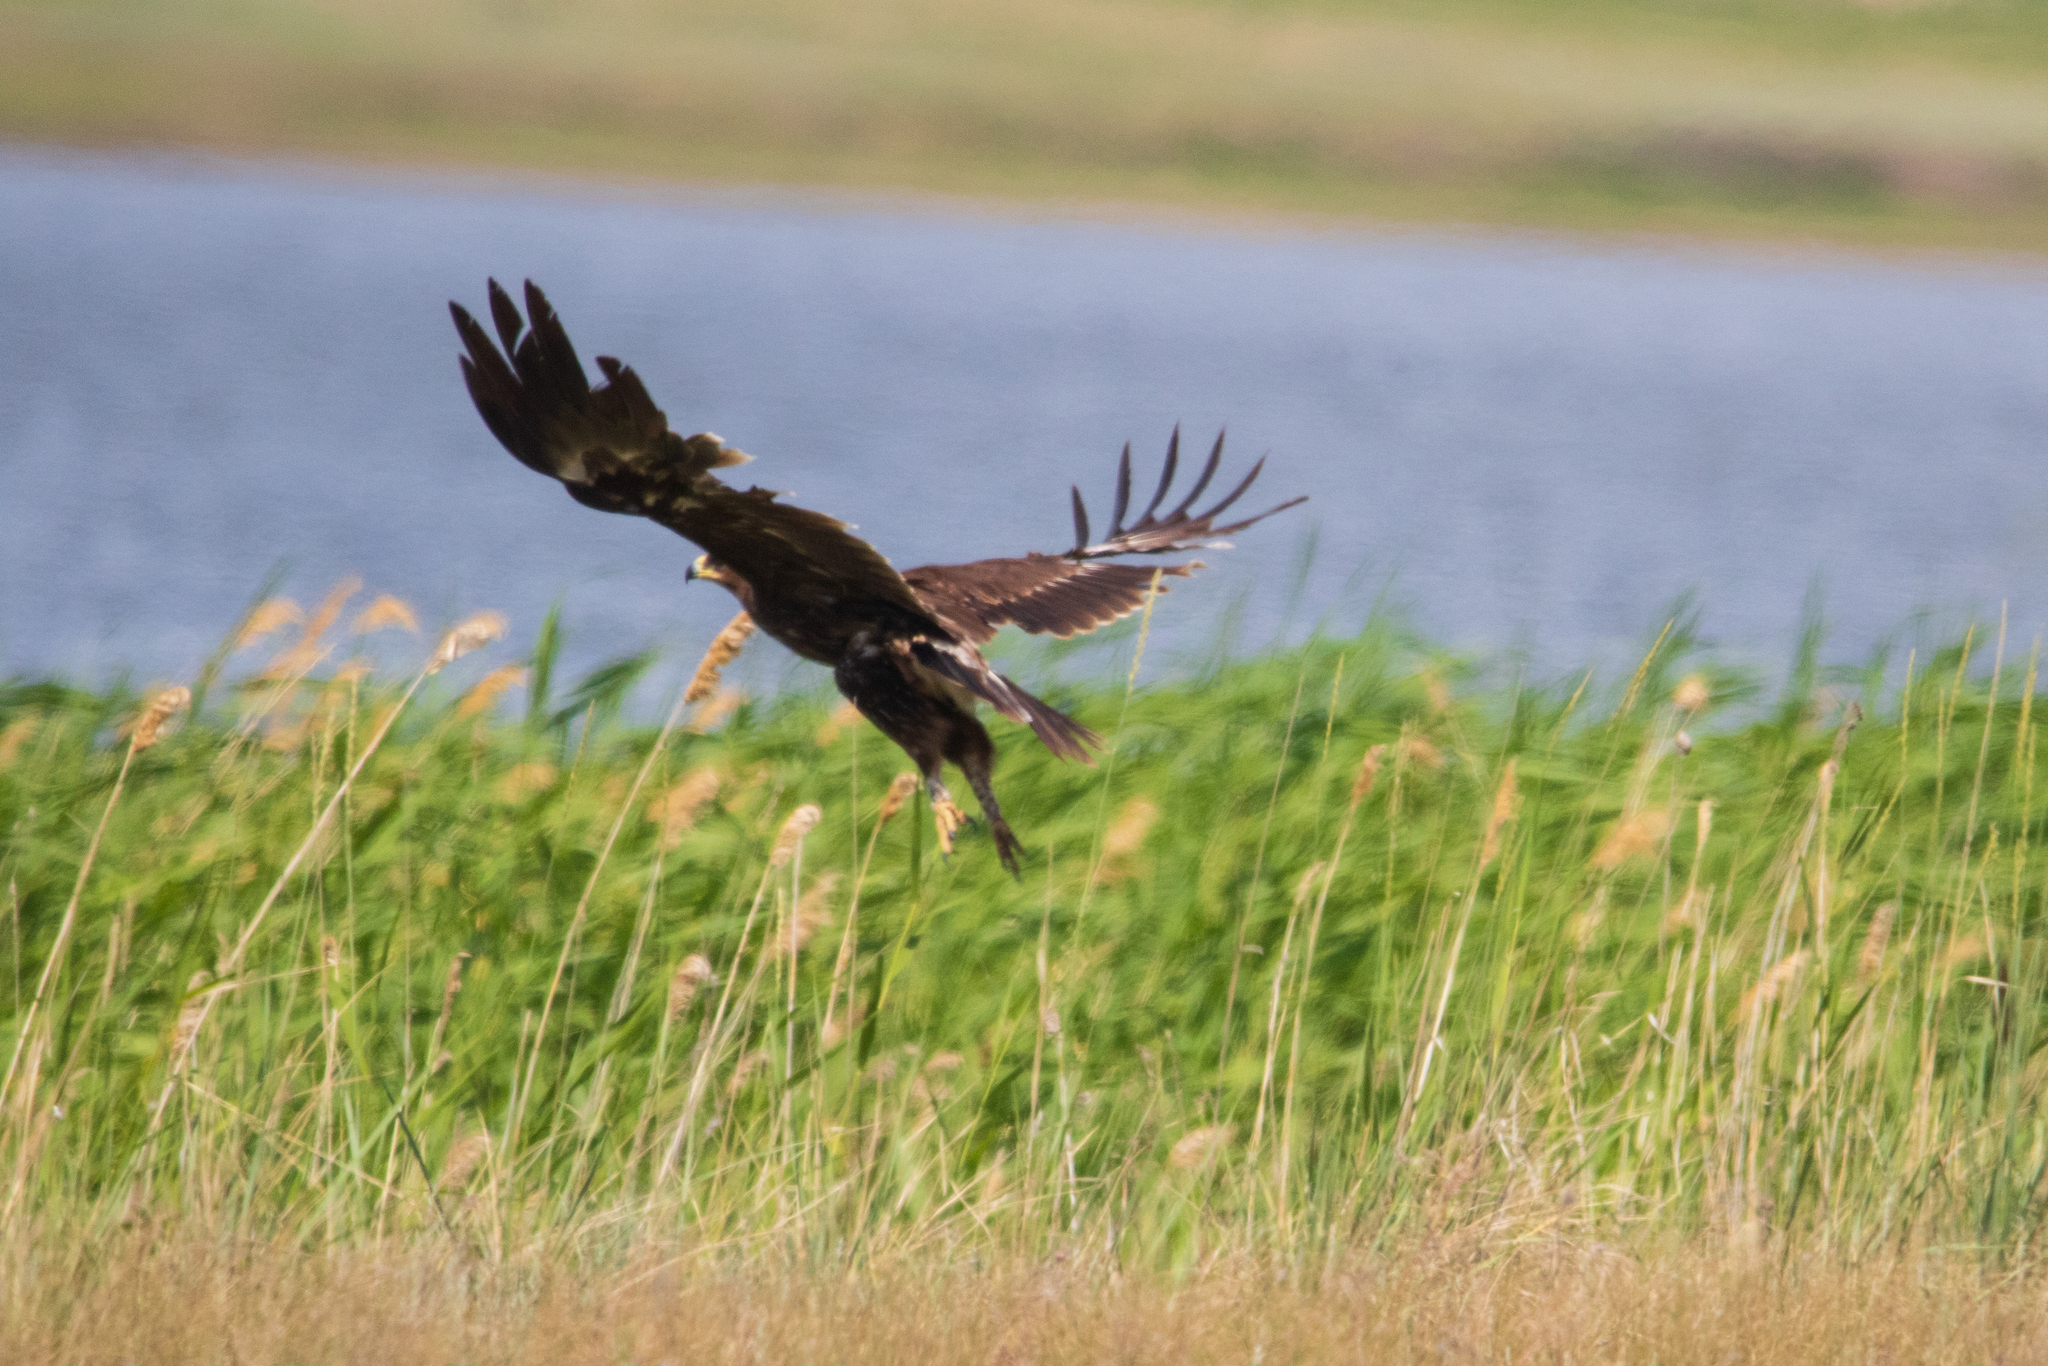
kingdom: Animalia
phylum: Chordata
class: Aves
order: Accipitriformes
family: Accipitridae
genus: Aquila
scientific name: Aquila clanga
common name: Greater spotted eagle
